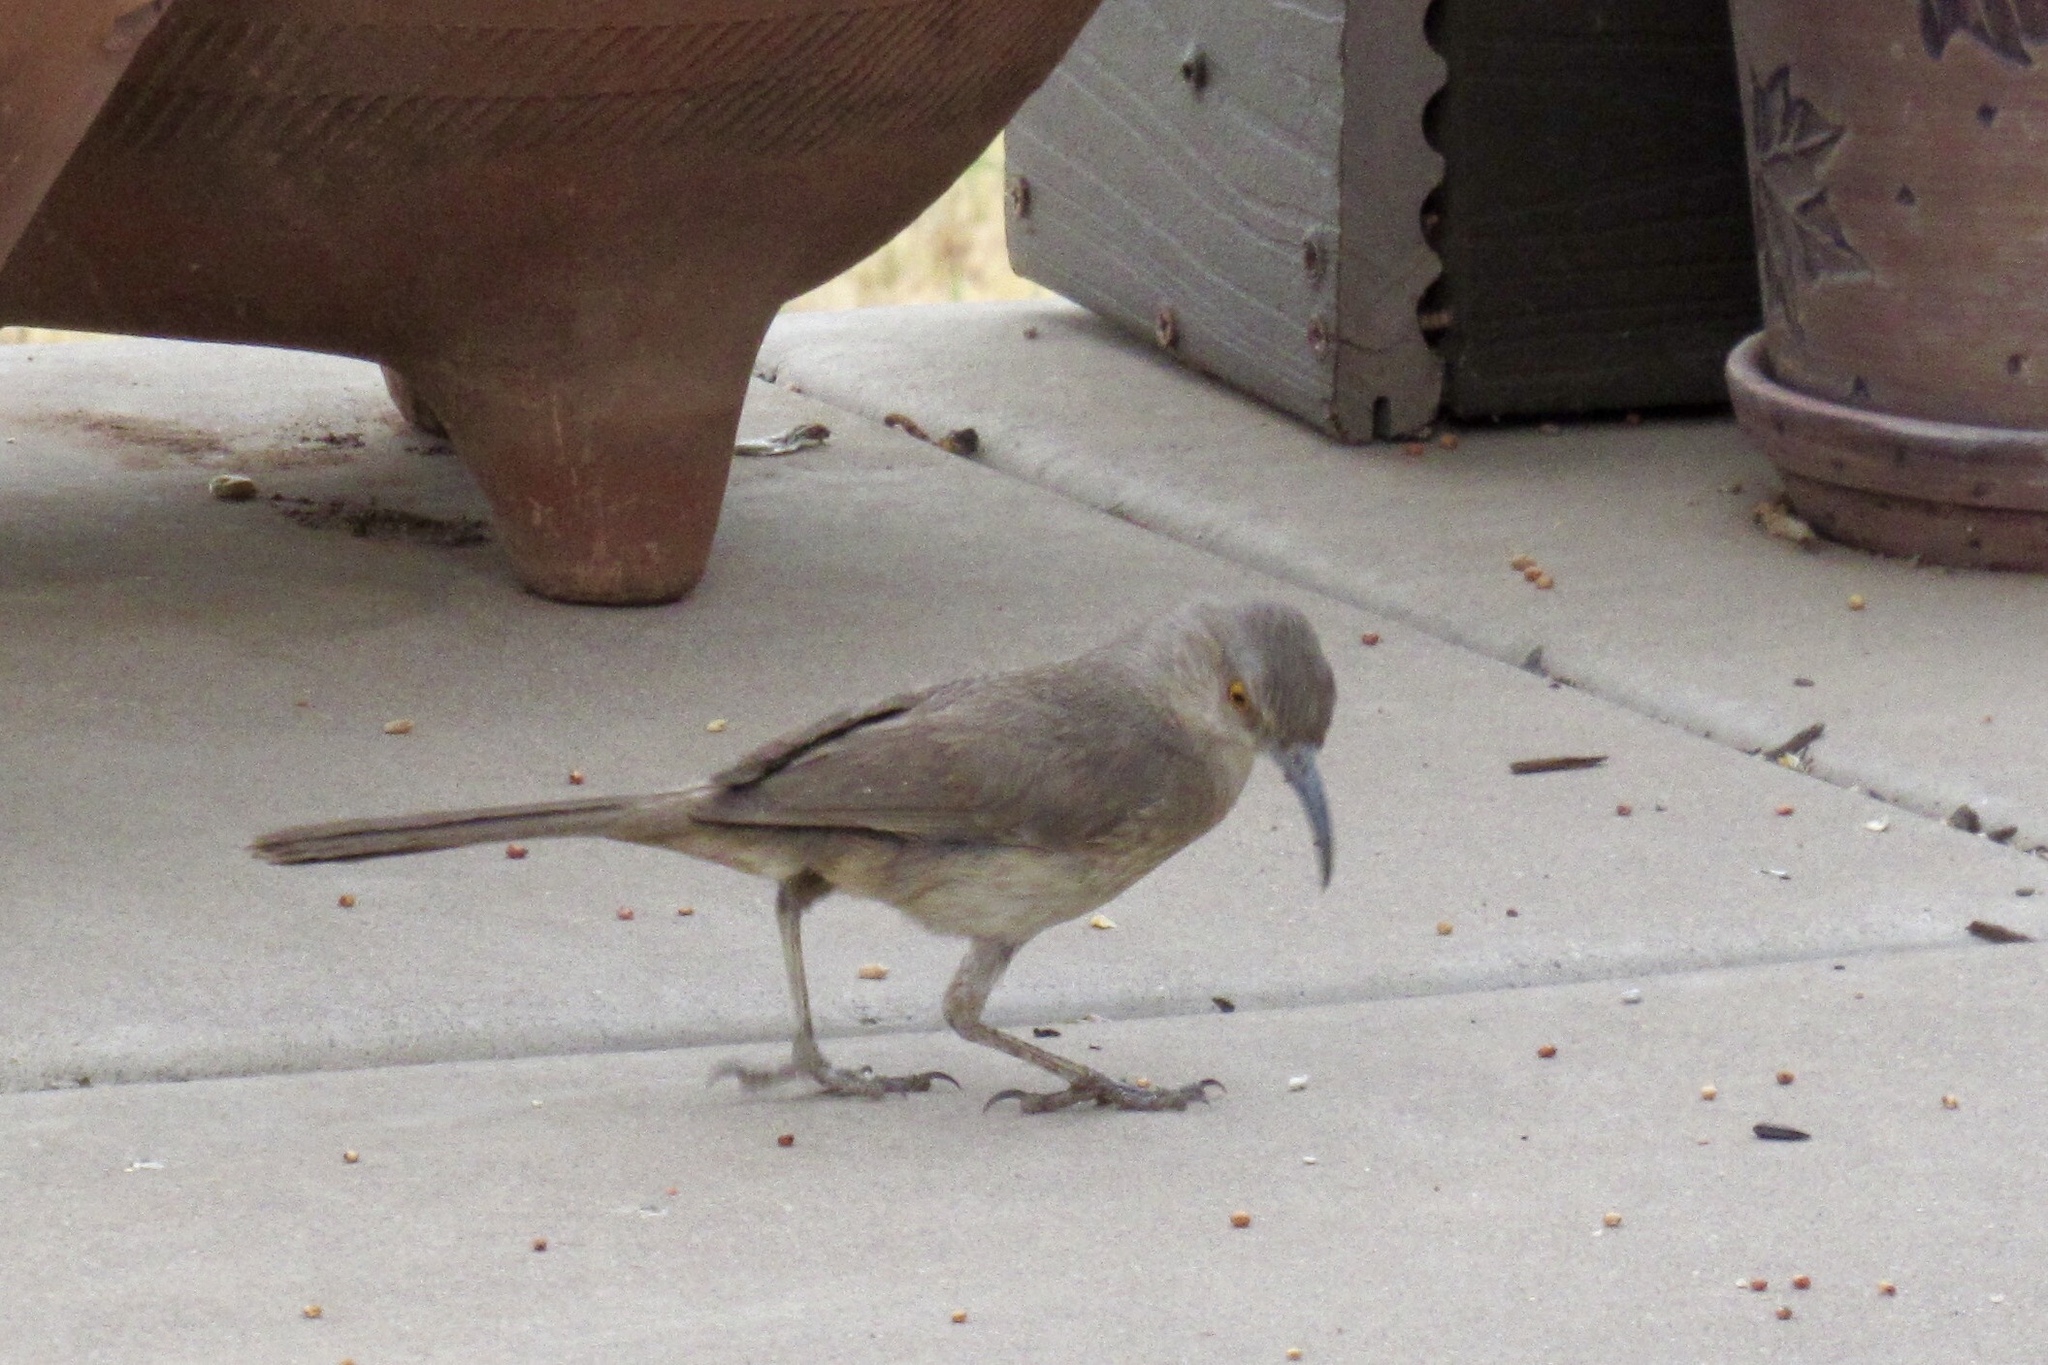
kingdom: Animalia
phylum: Chordata
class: Aves
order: Passeriformes
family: Mimidae
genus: Toxostoma
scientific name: Toxostoma curvirostre
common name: Curve-billed thrasher
